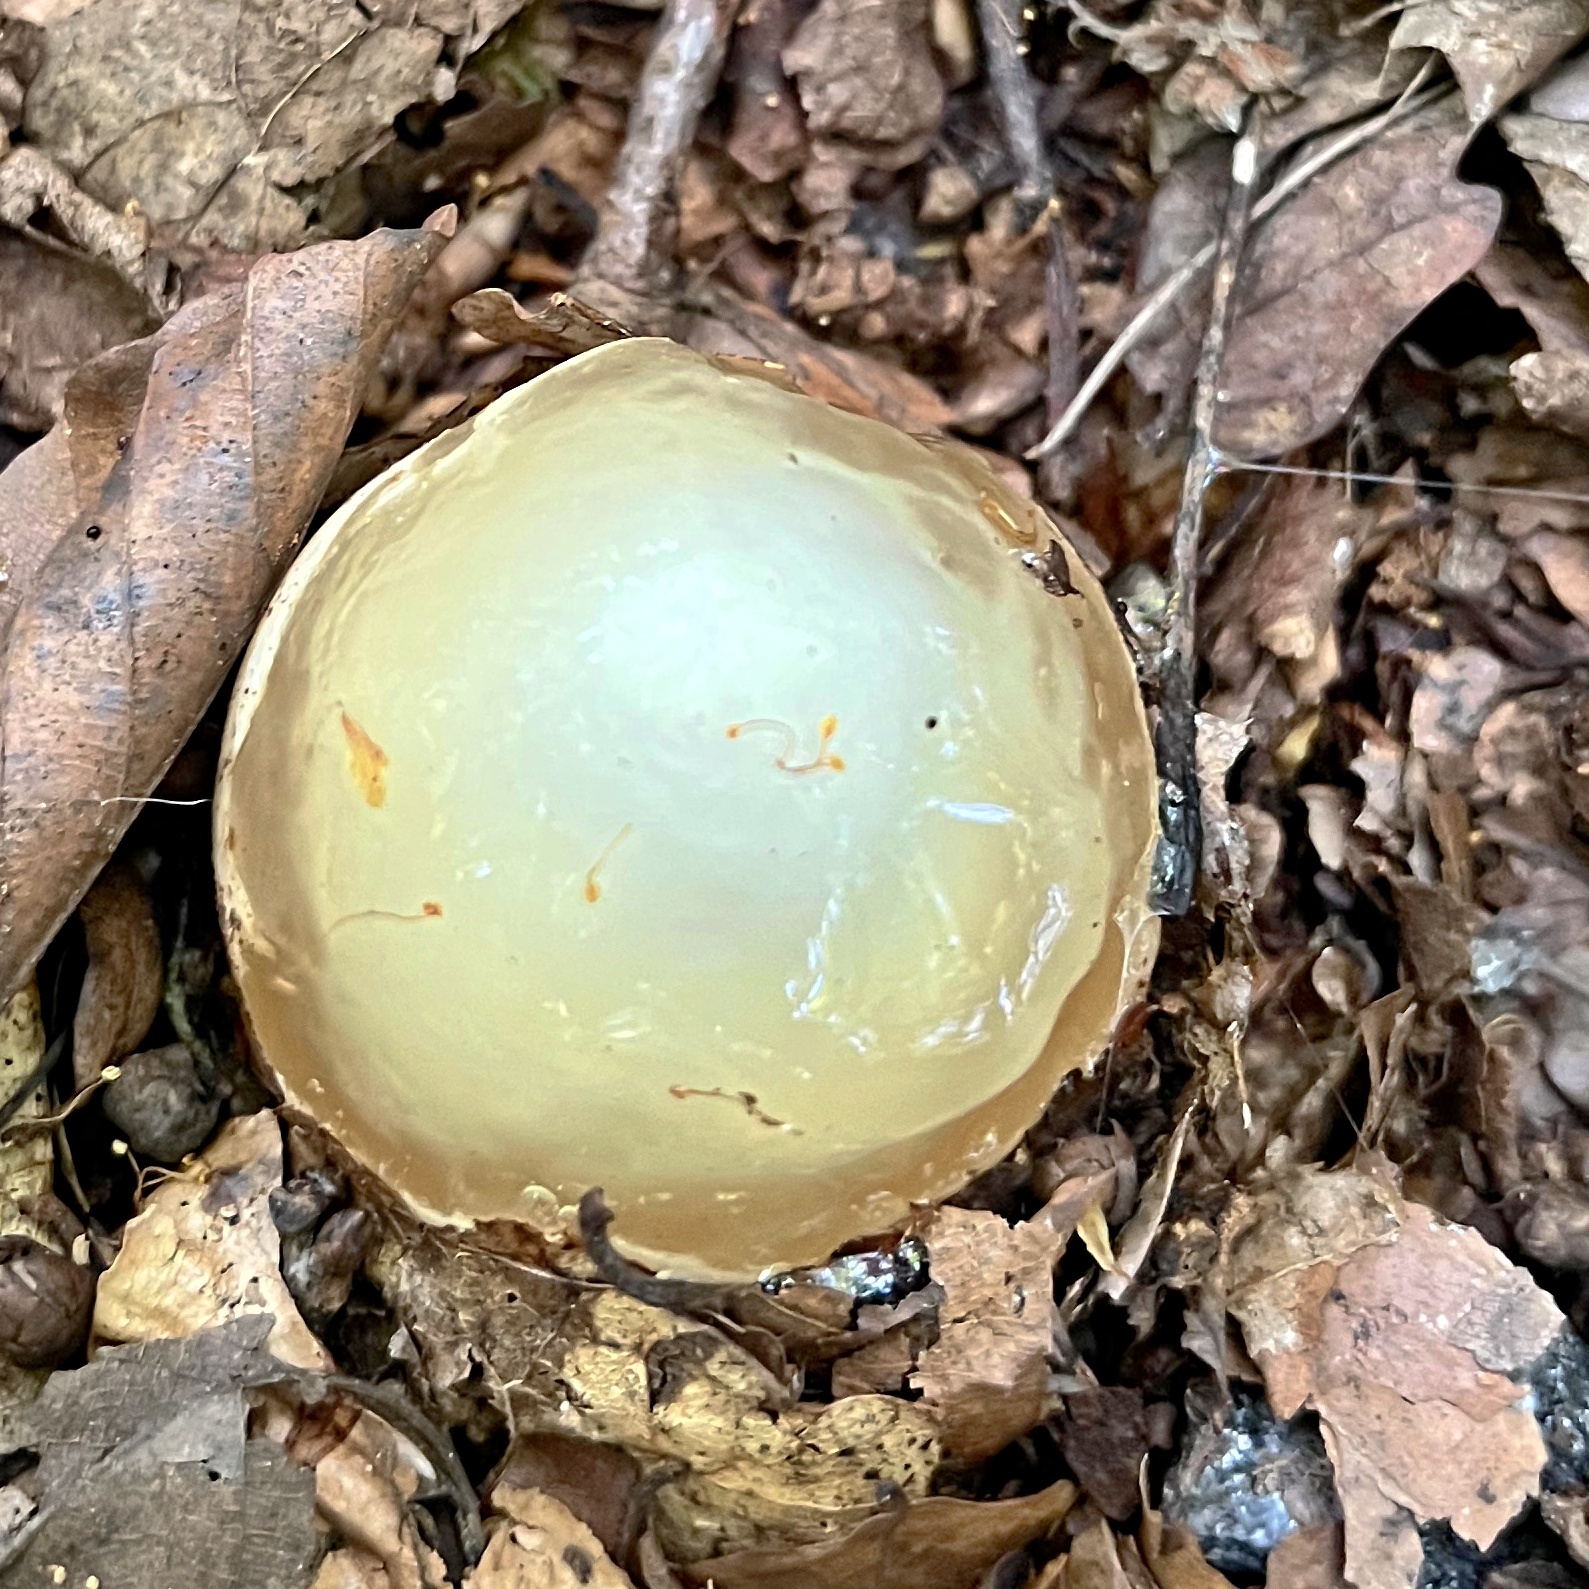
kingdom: Fungi
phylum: Basidiomycota
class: Agaricomycetes
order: Phallales
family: Phallaceae
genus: Phallus
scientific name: Phallus impudicus
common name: Common stinkhorn
